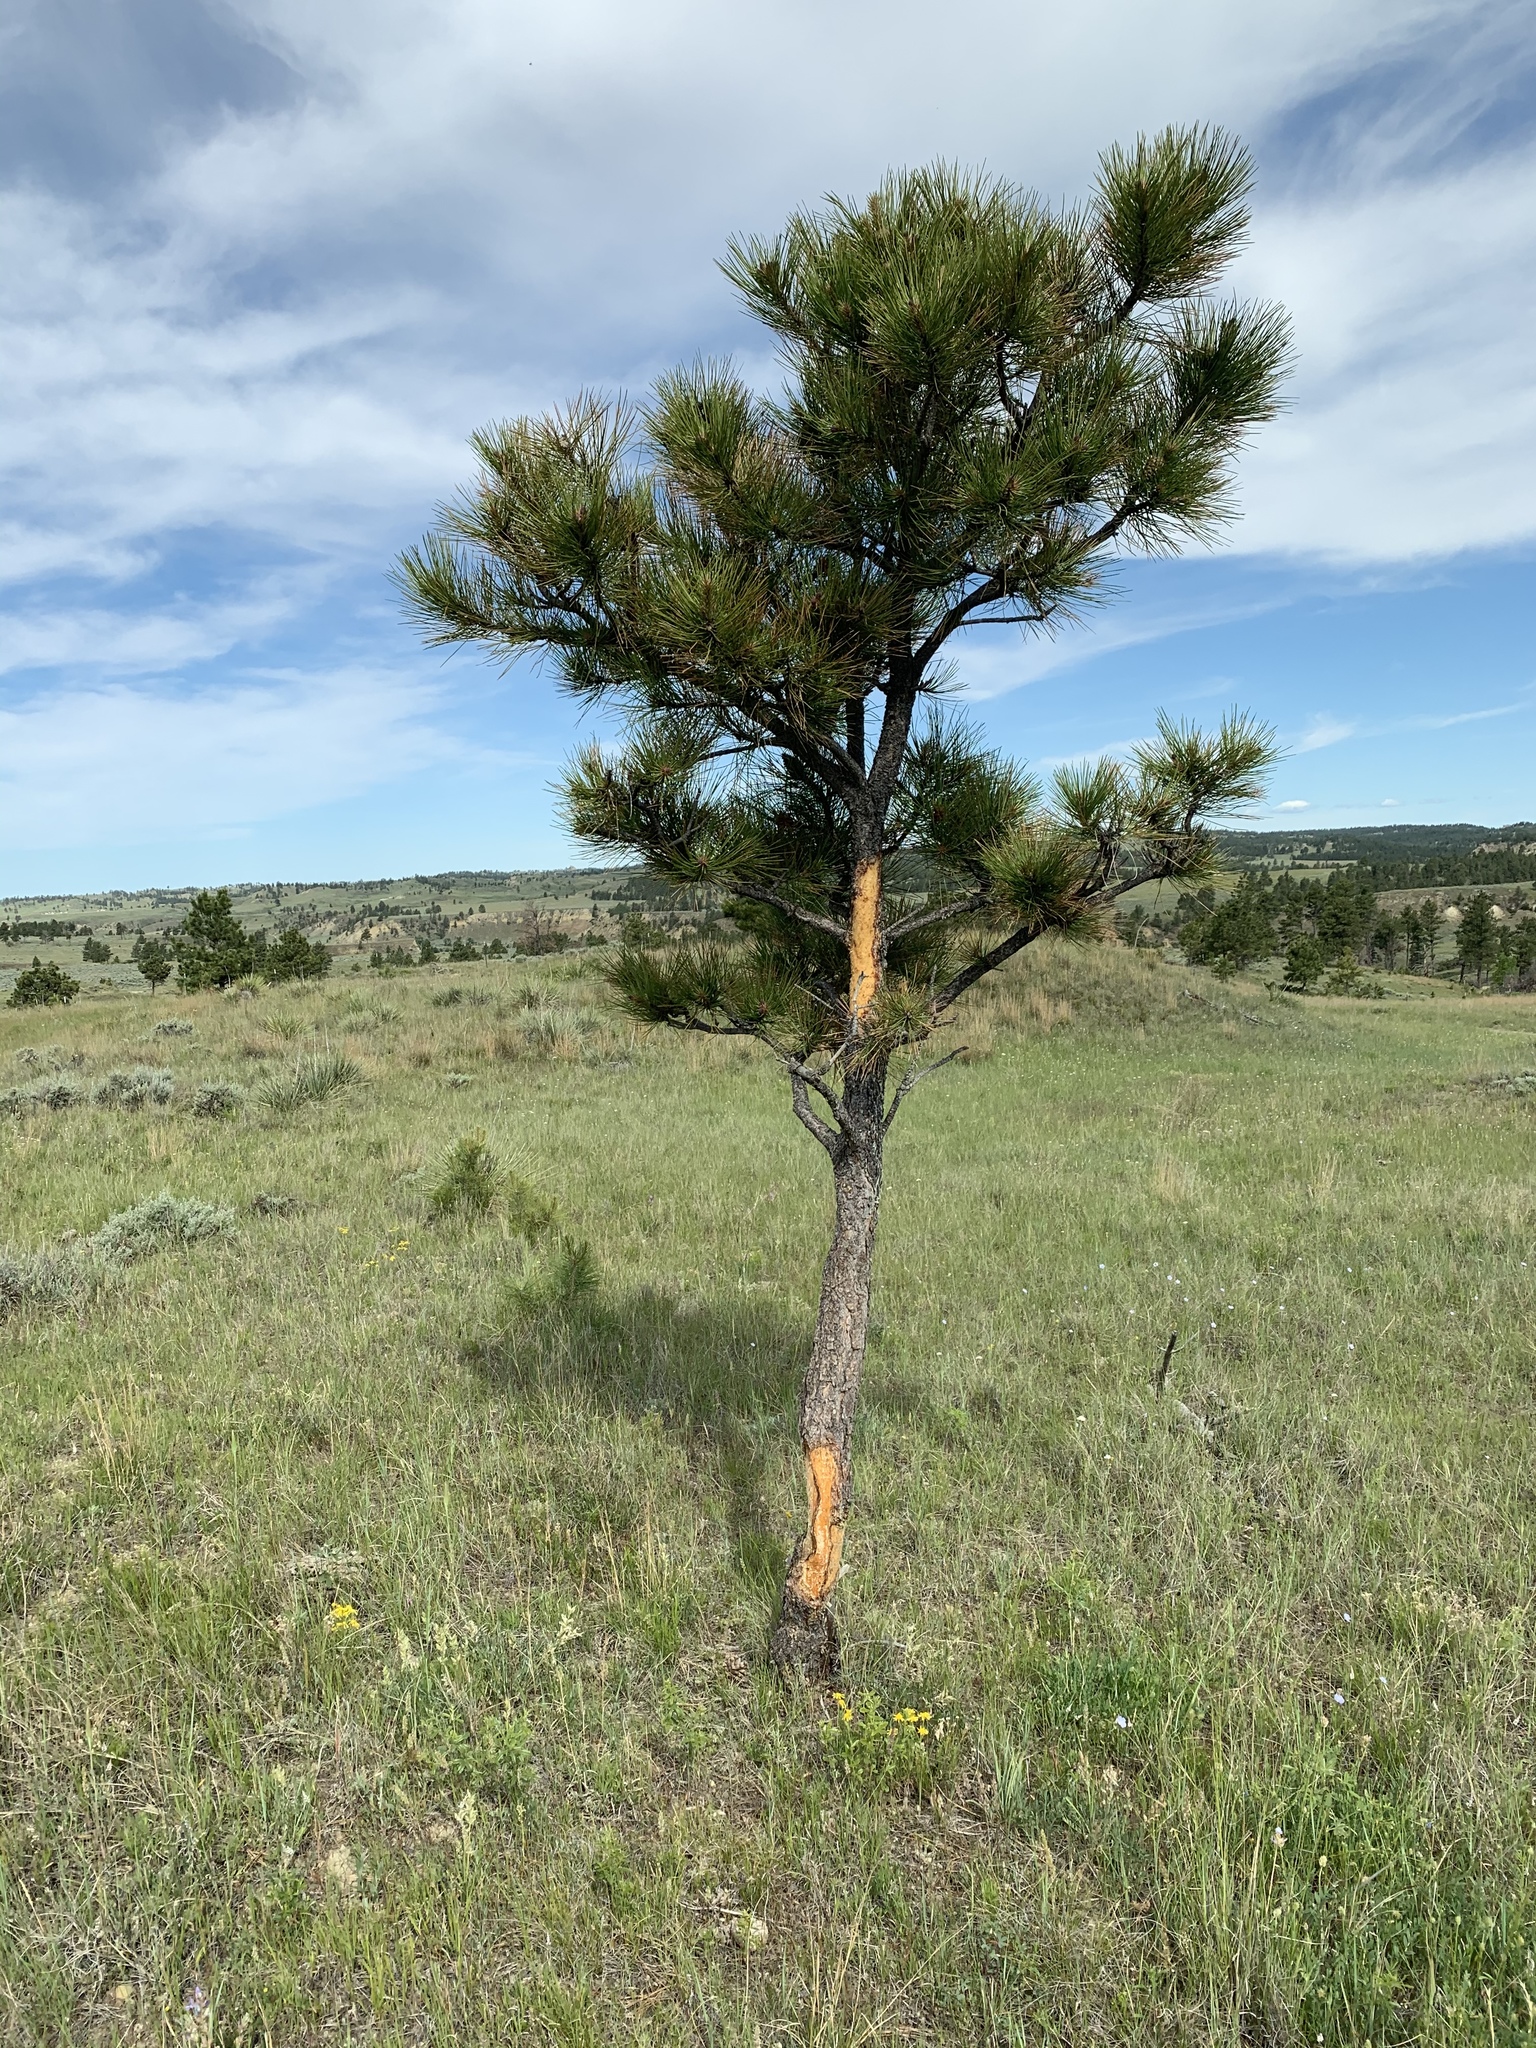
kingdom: Animalia
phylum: Chordata
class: Mammalia
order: Rodentia
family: Erethizontidae
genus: Erethizon
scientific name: Erethizon dorsatus
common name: North american porcupine
